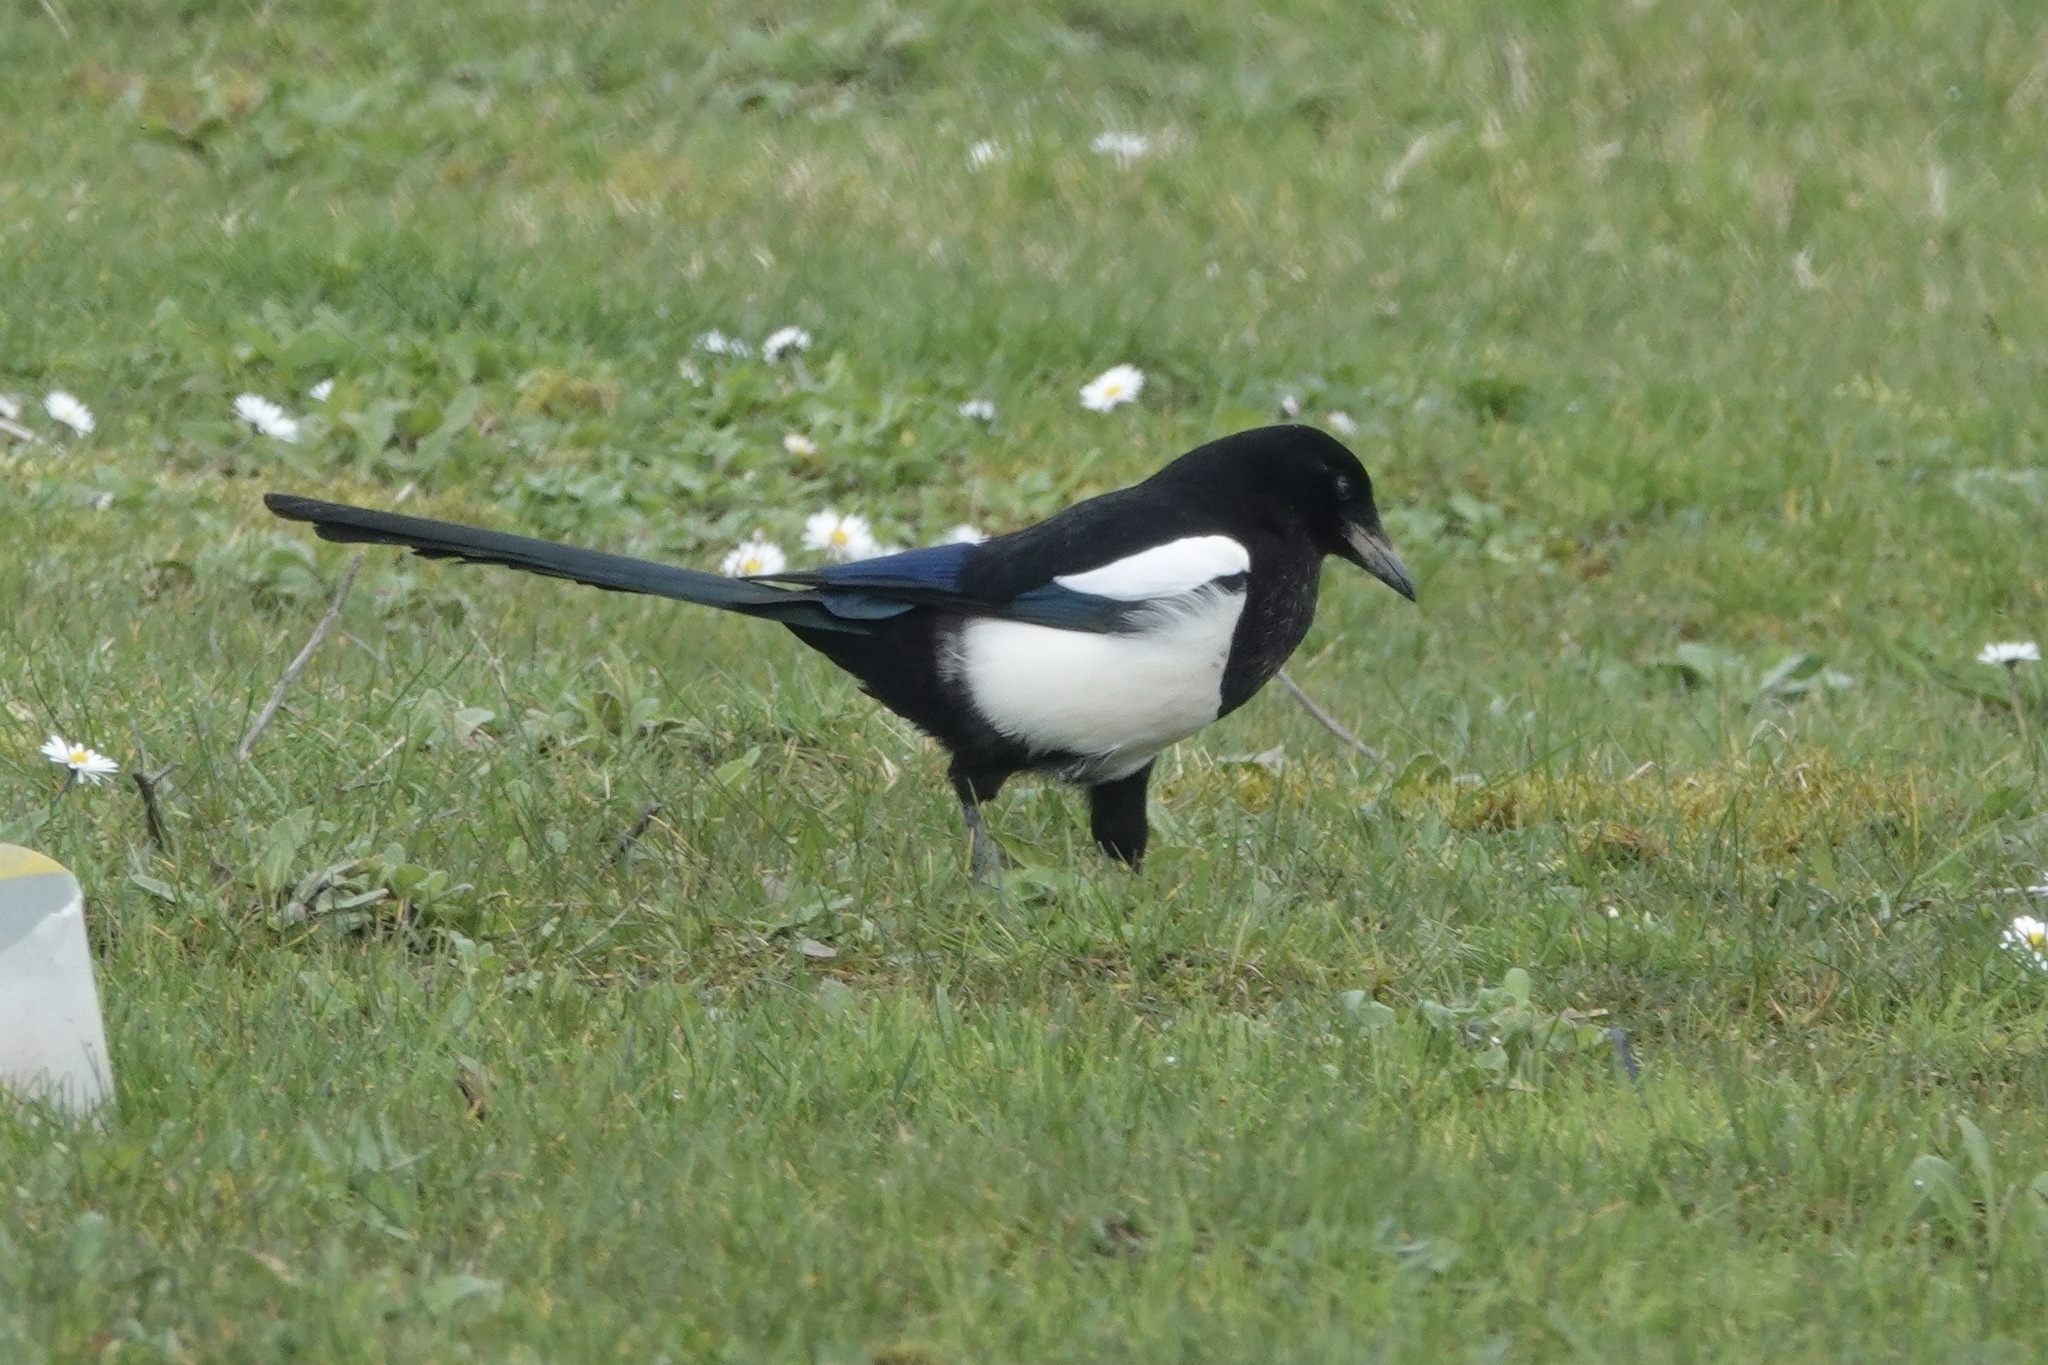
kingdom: Animalia
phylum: Chordata
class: Aves
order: Passeriformes
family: Corvidae
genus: Pica
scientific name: Pica pica
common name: Eurasian magpie
